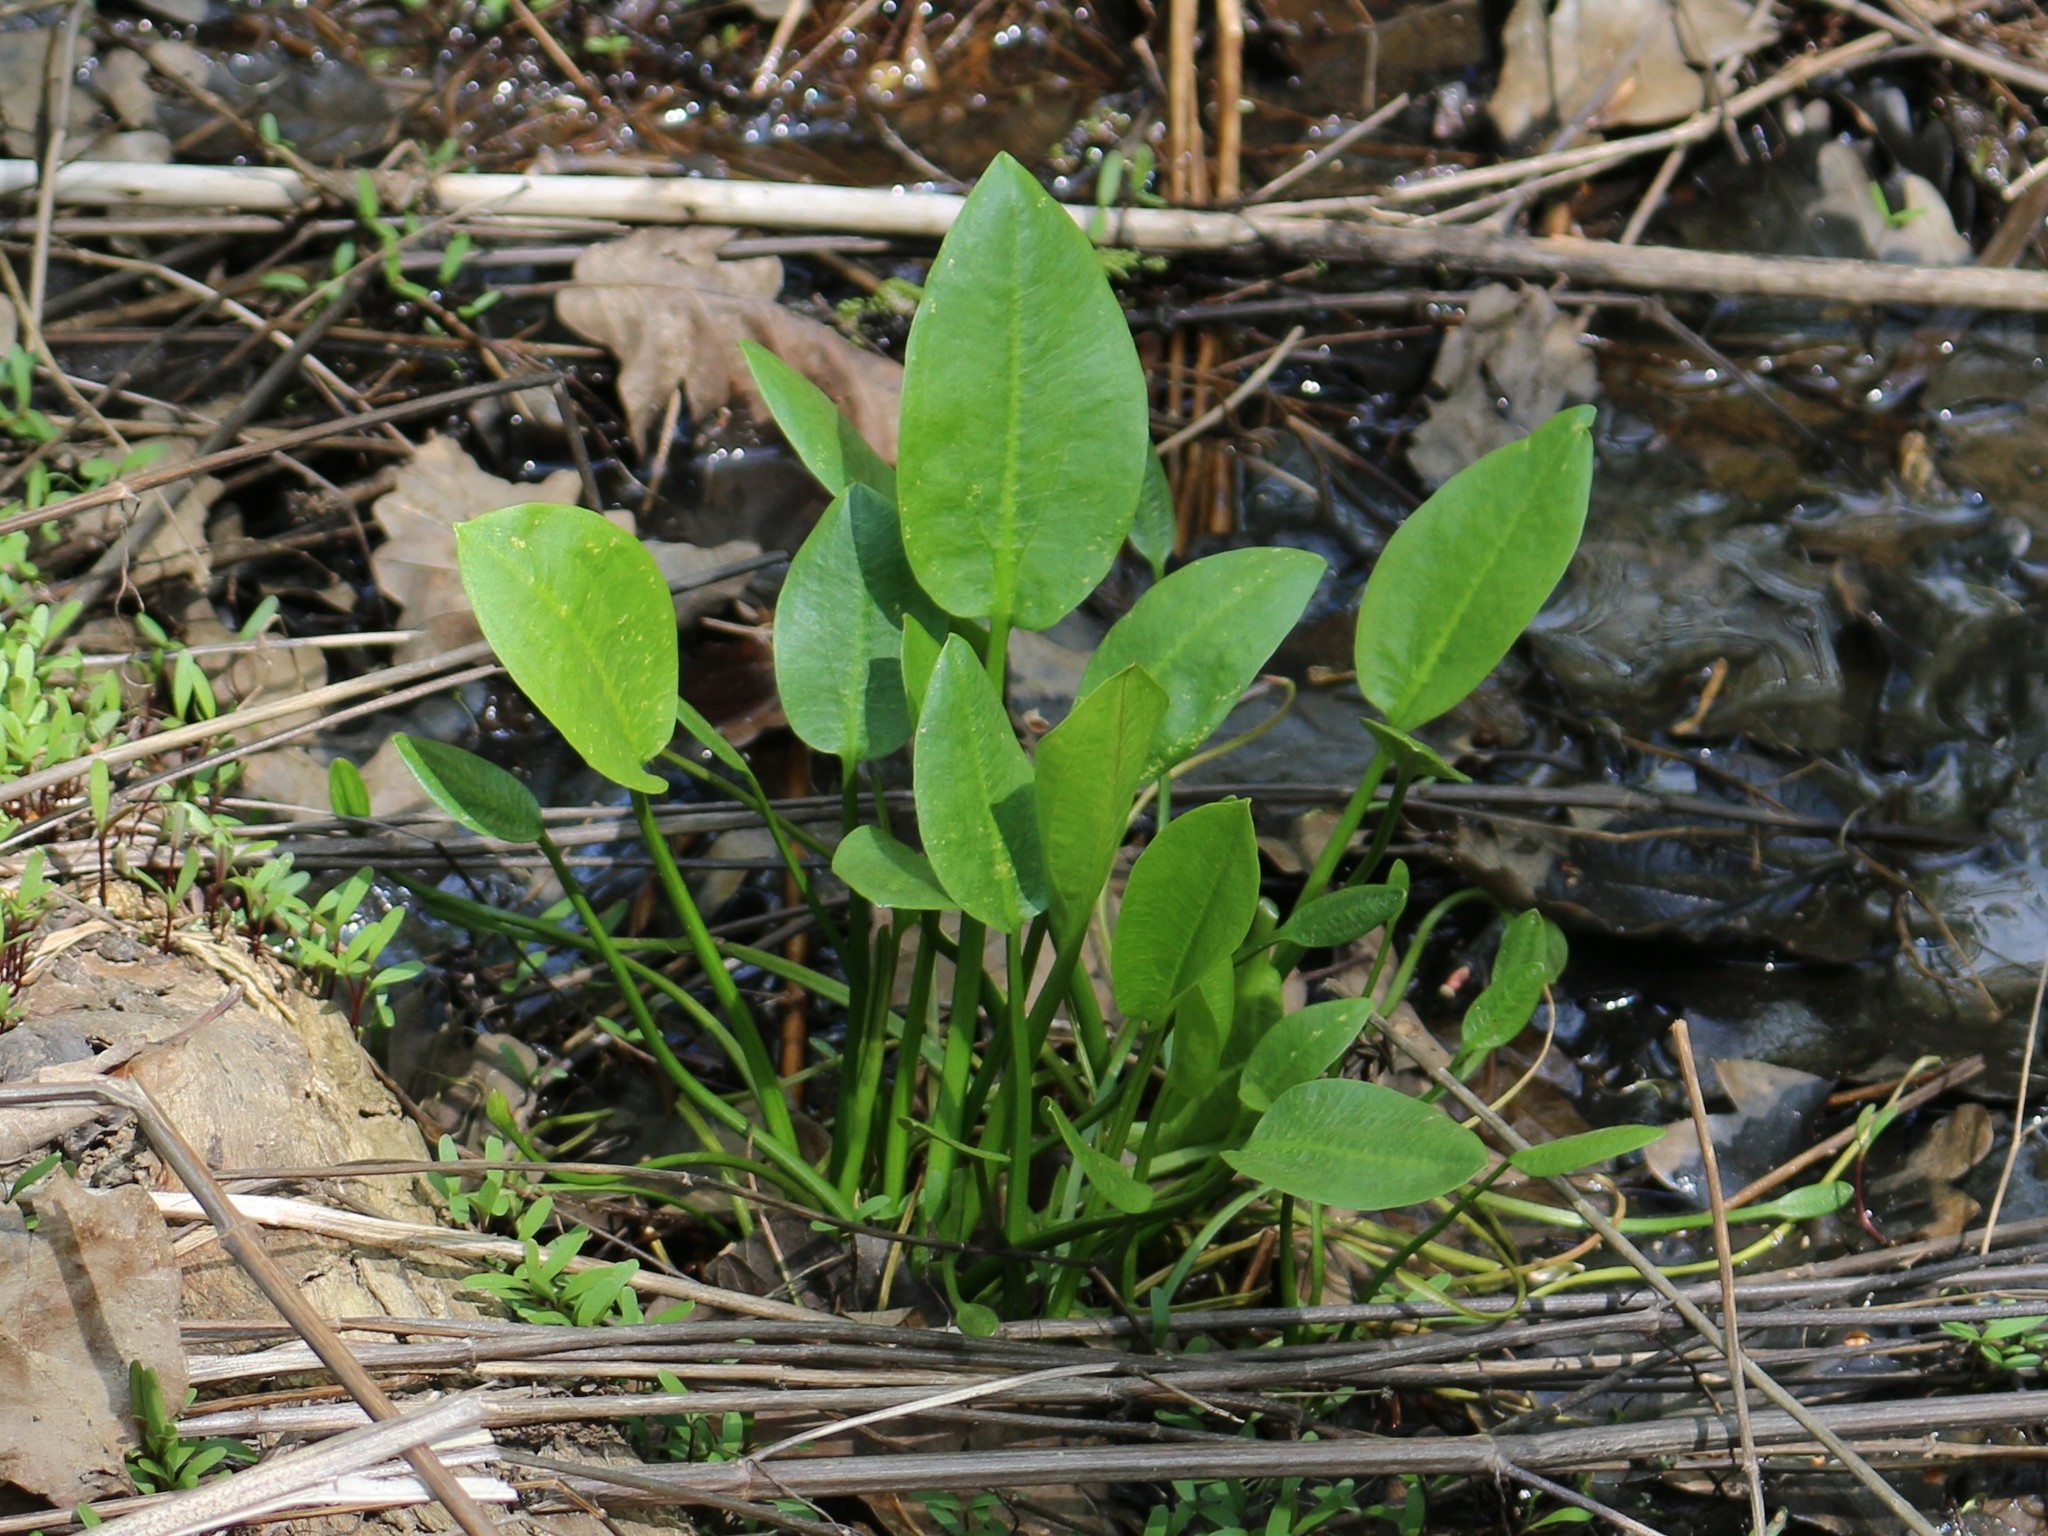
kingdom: Plantae
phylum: Tracheophyta
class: Liliopsida
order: Alismatales
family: Alismataceae
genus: Alisma
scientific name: Alisma plantago-aquatica
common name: Water-plantain
